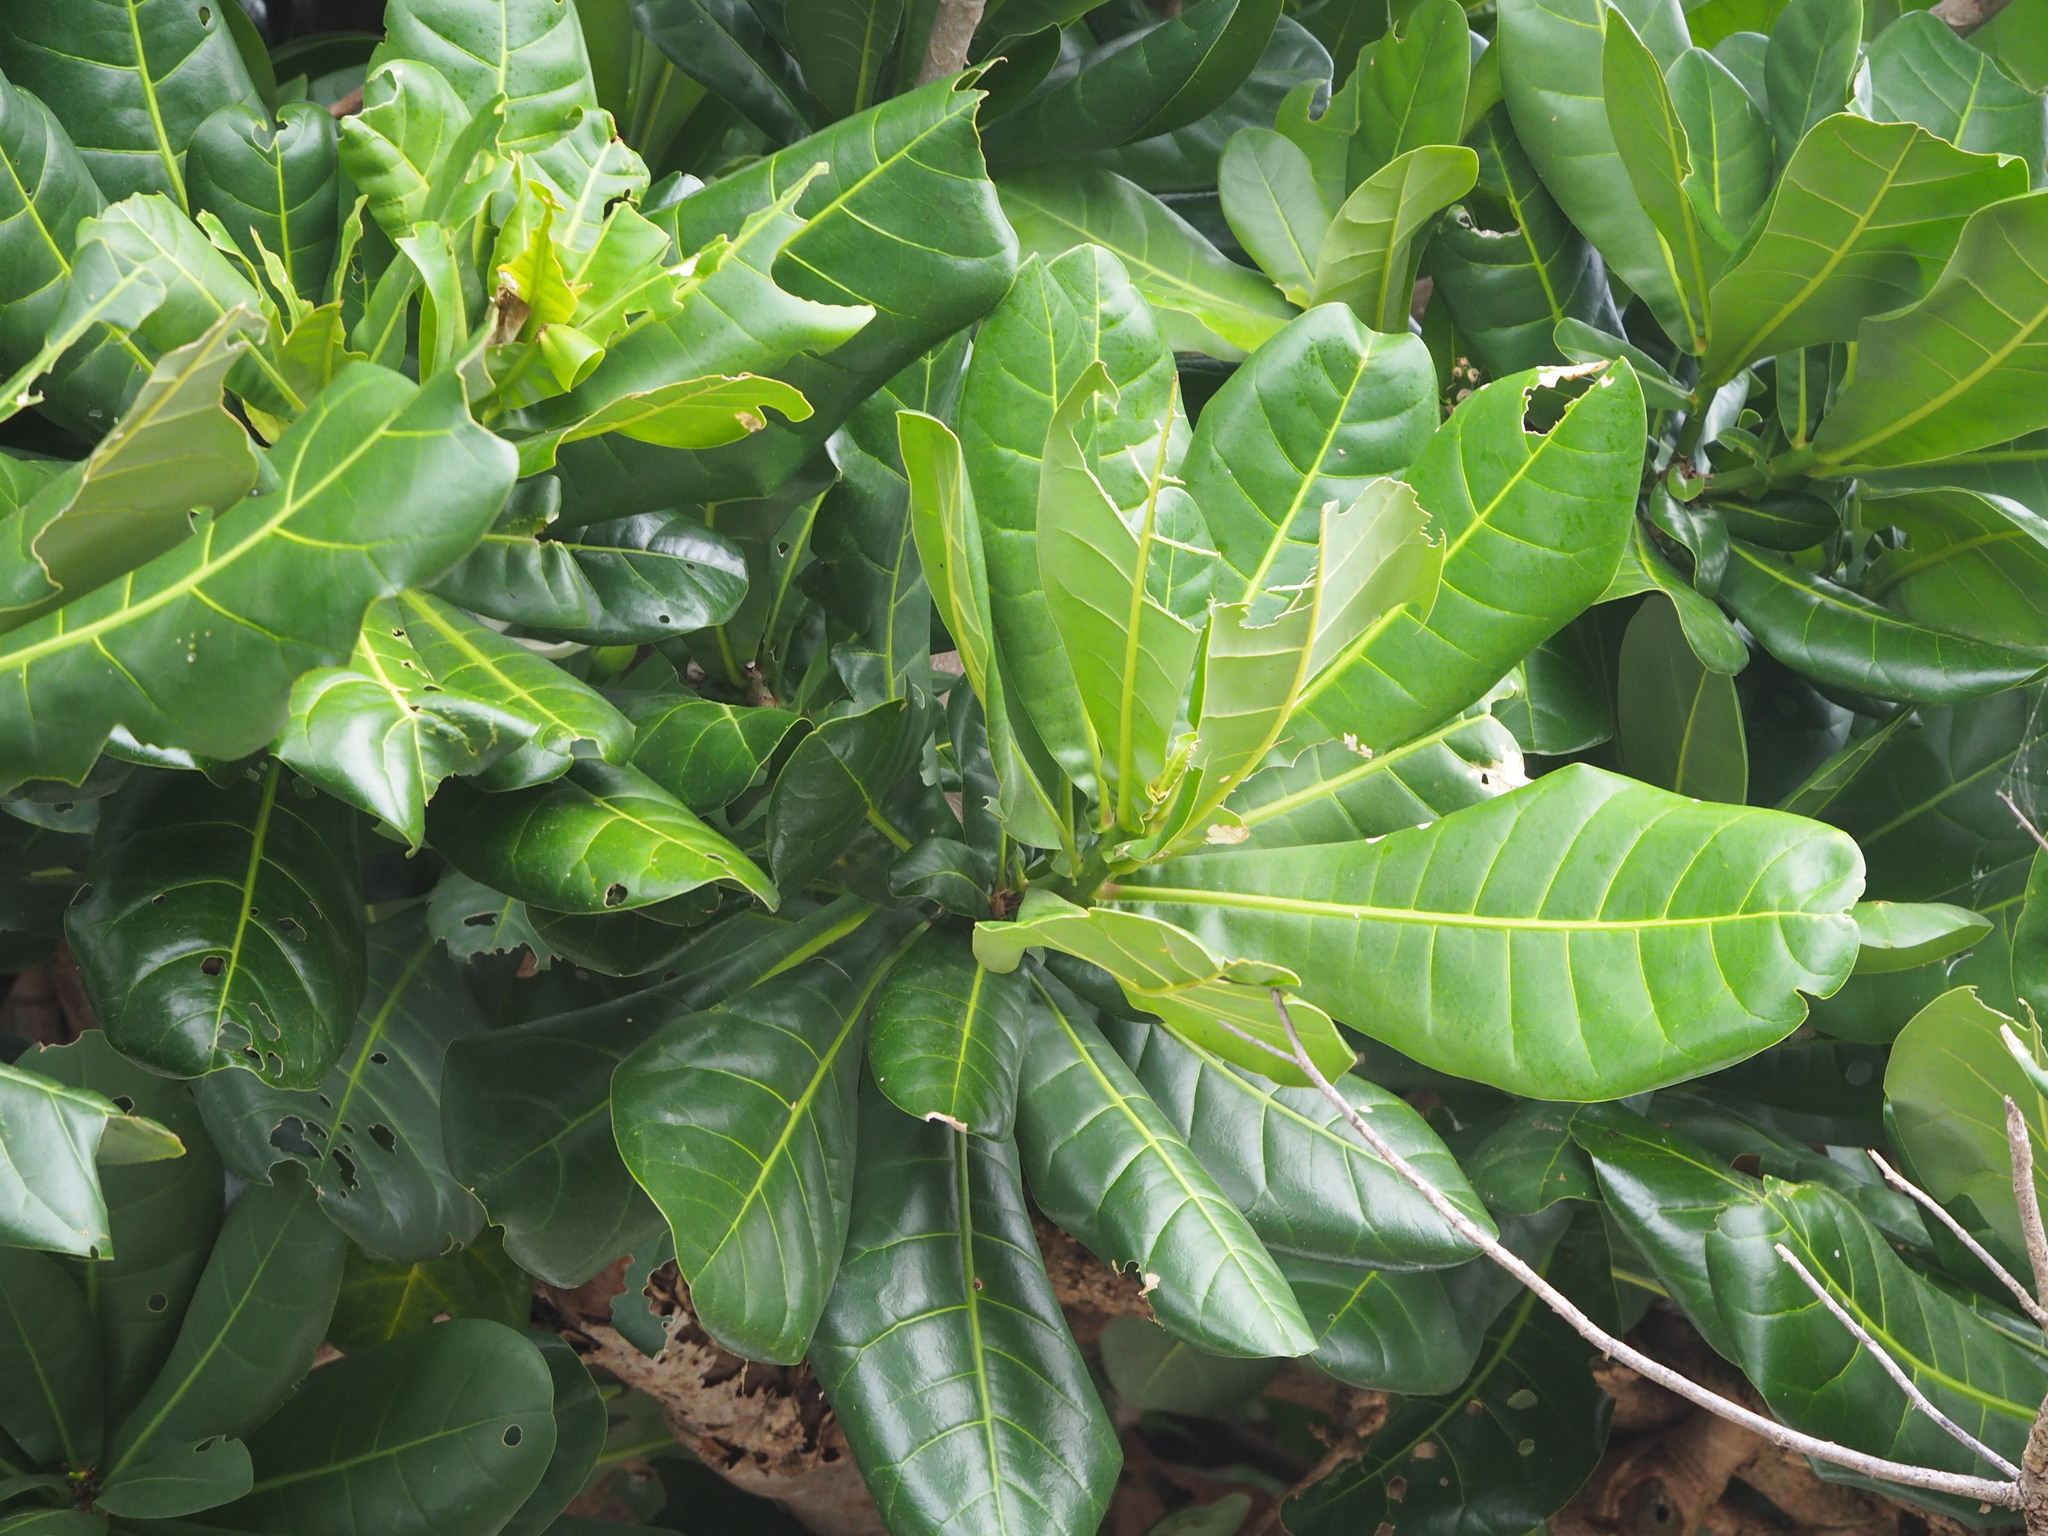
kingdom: Plantae
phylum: Tracheophyta
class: Magnoliopsida
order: Ericales
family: Lecythidaceae
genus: Barringtonia
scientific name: Barringtonia asiatica
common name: Mango-pine
